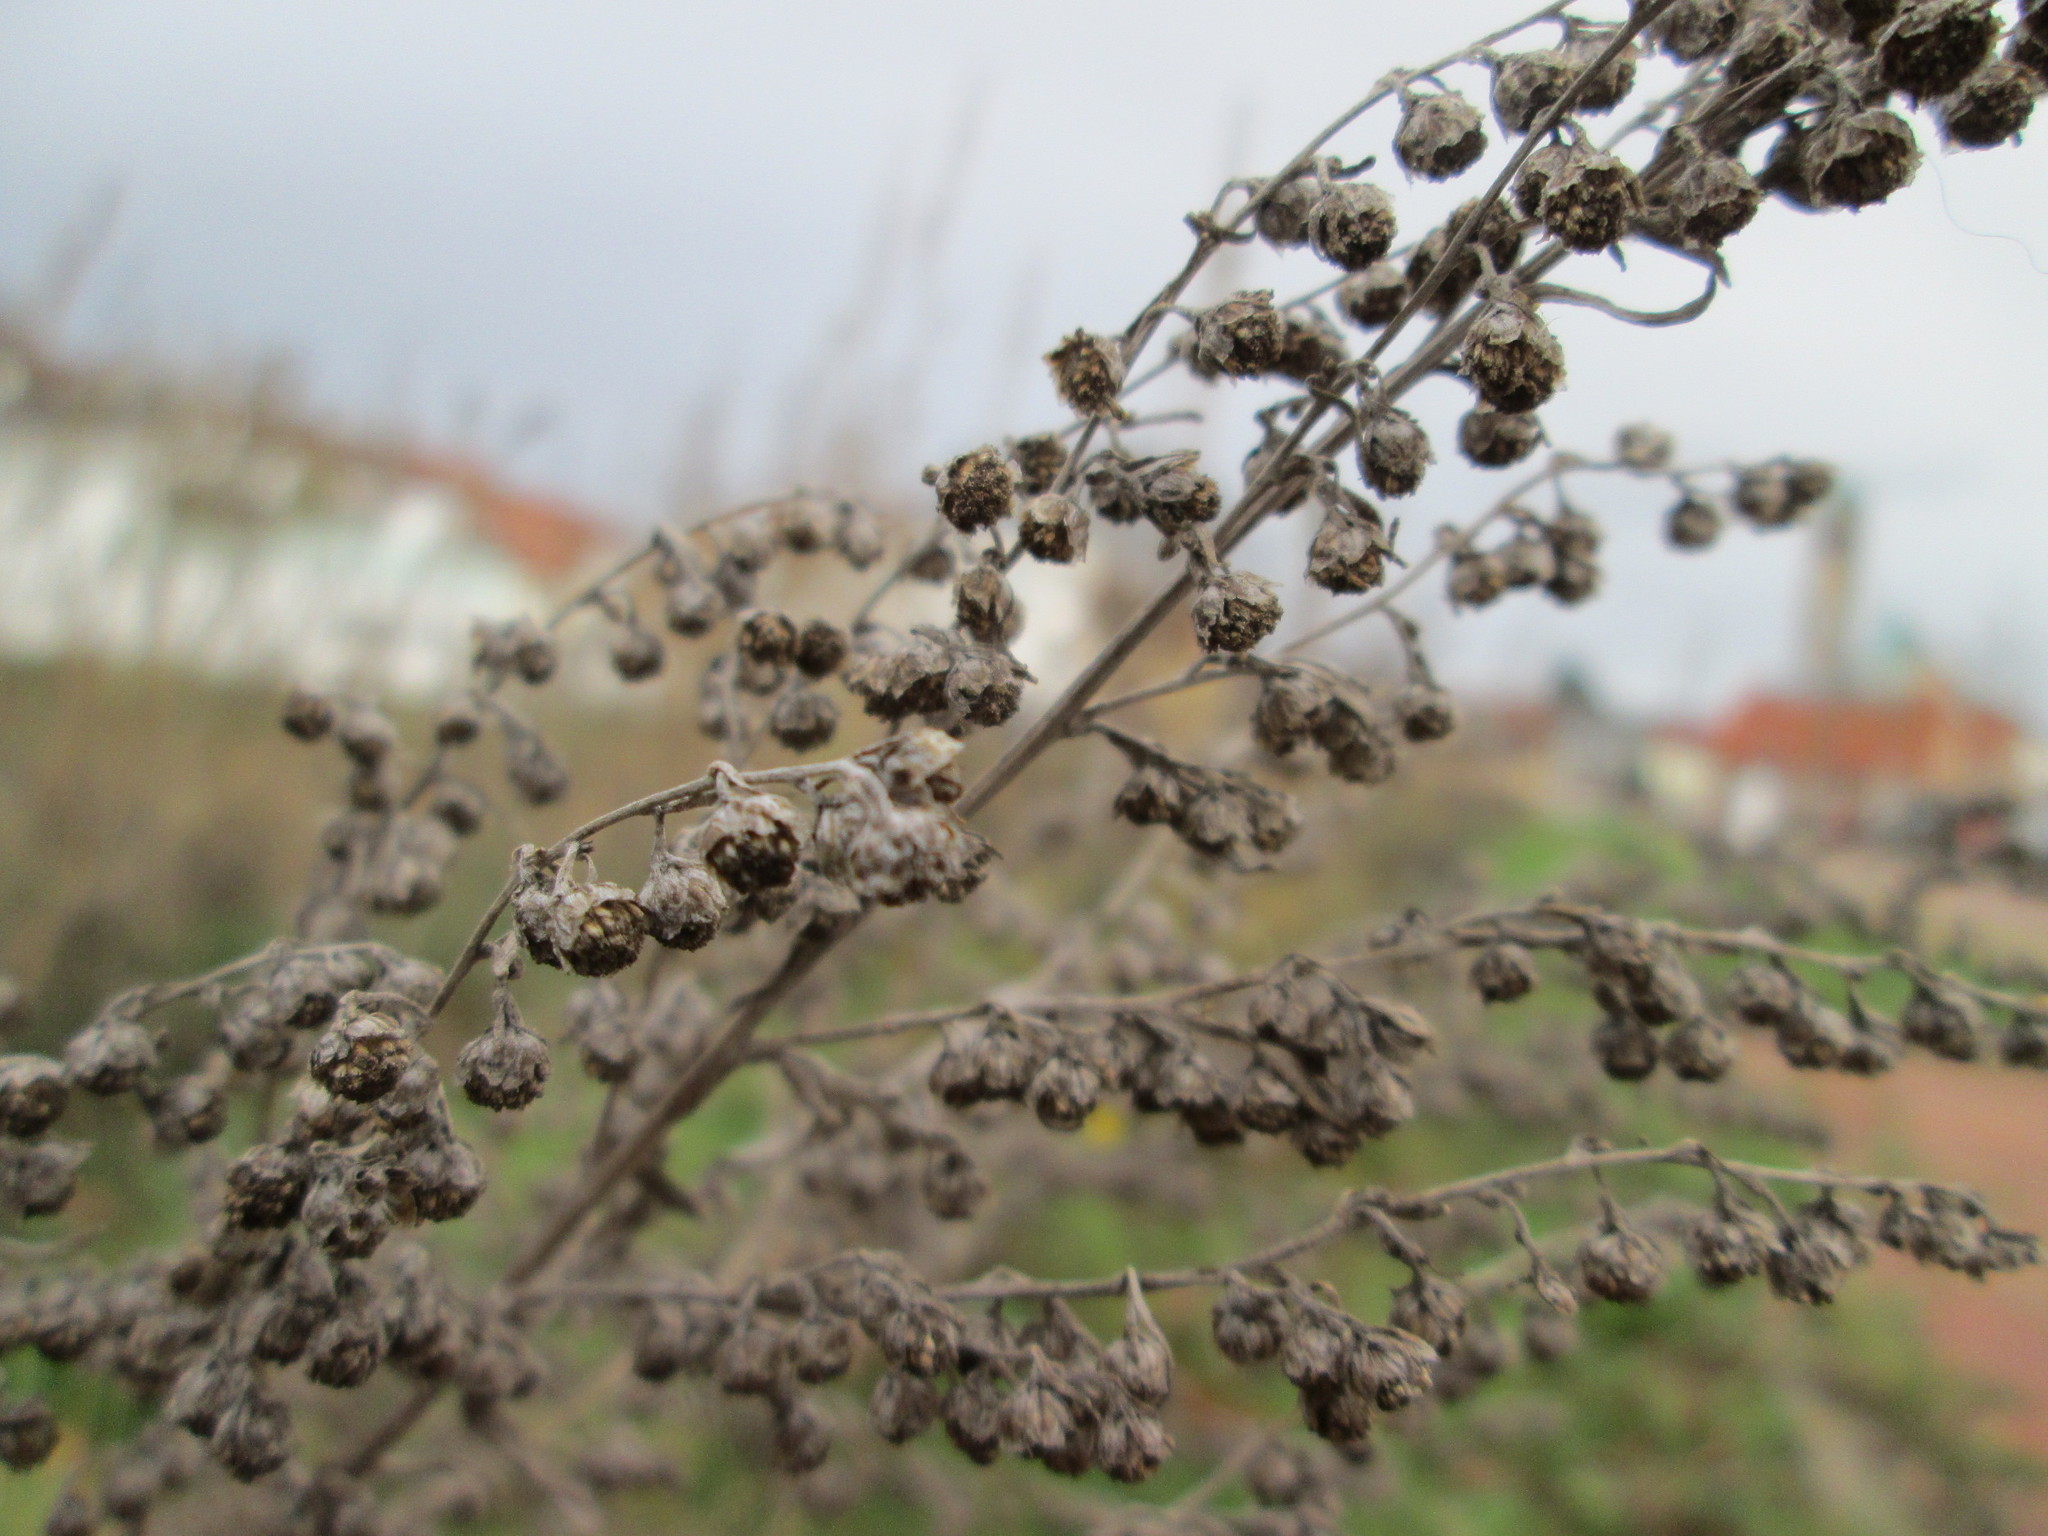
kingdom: Plantae
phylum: Tracheophyta
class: Magnoliopsida
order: Asterales
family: Asteraceae
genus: Artemisia
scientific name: Artemisia absinthium
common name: Wormwood
